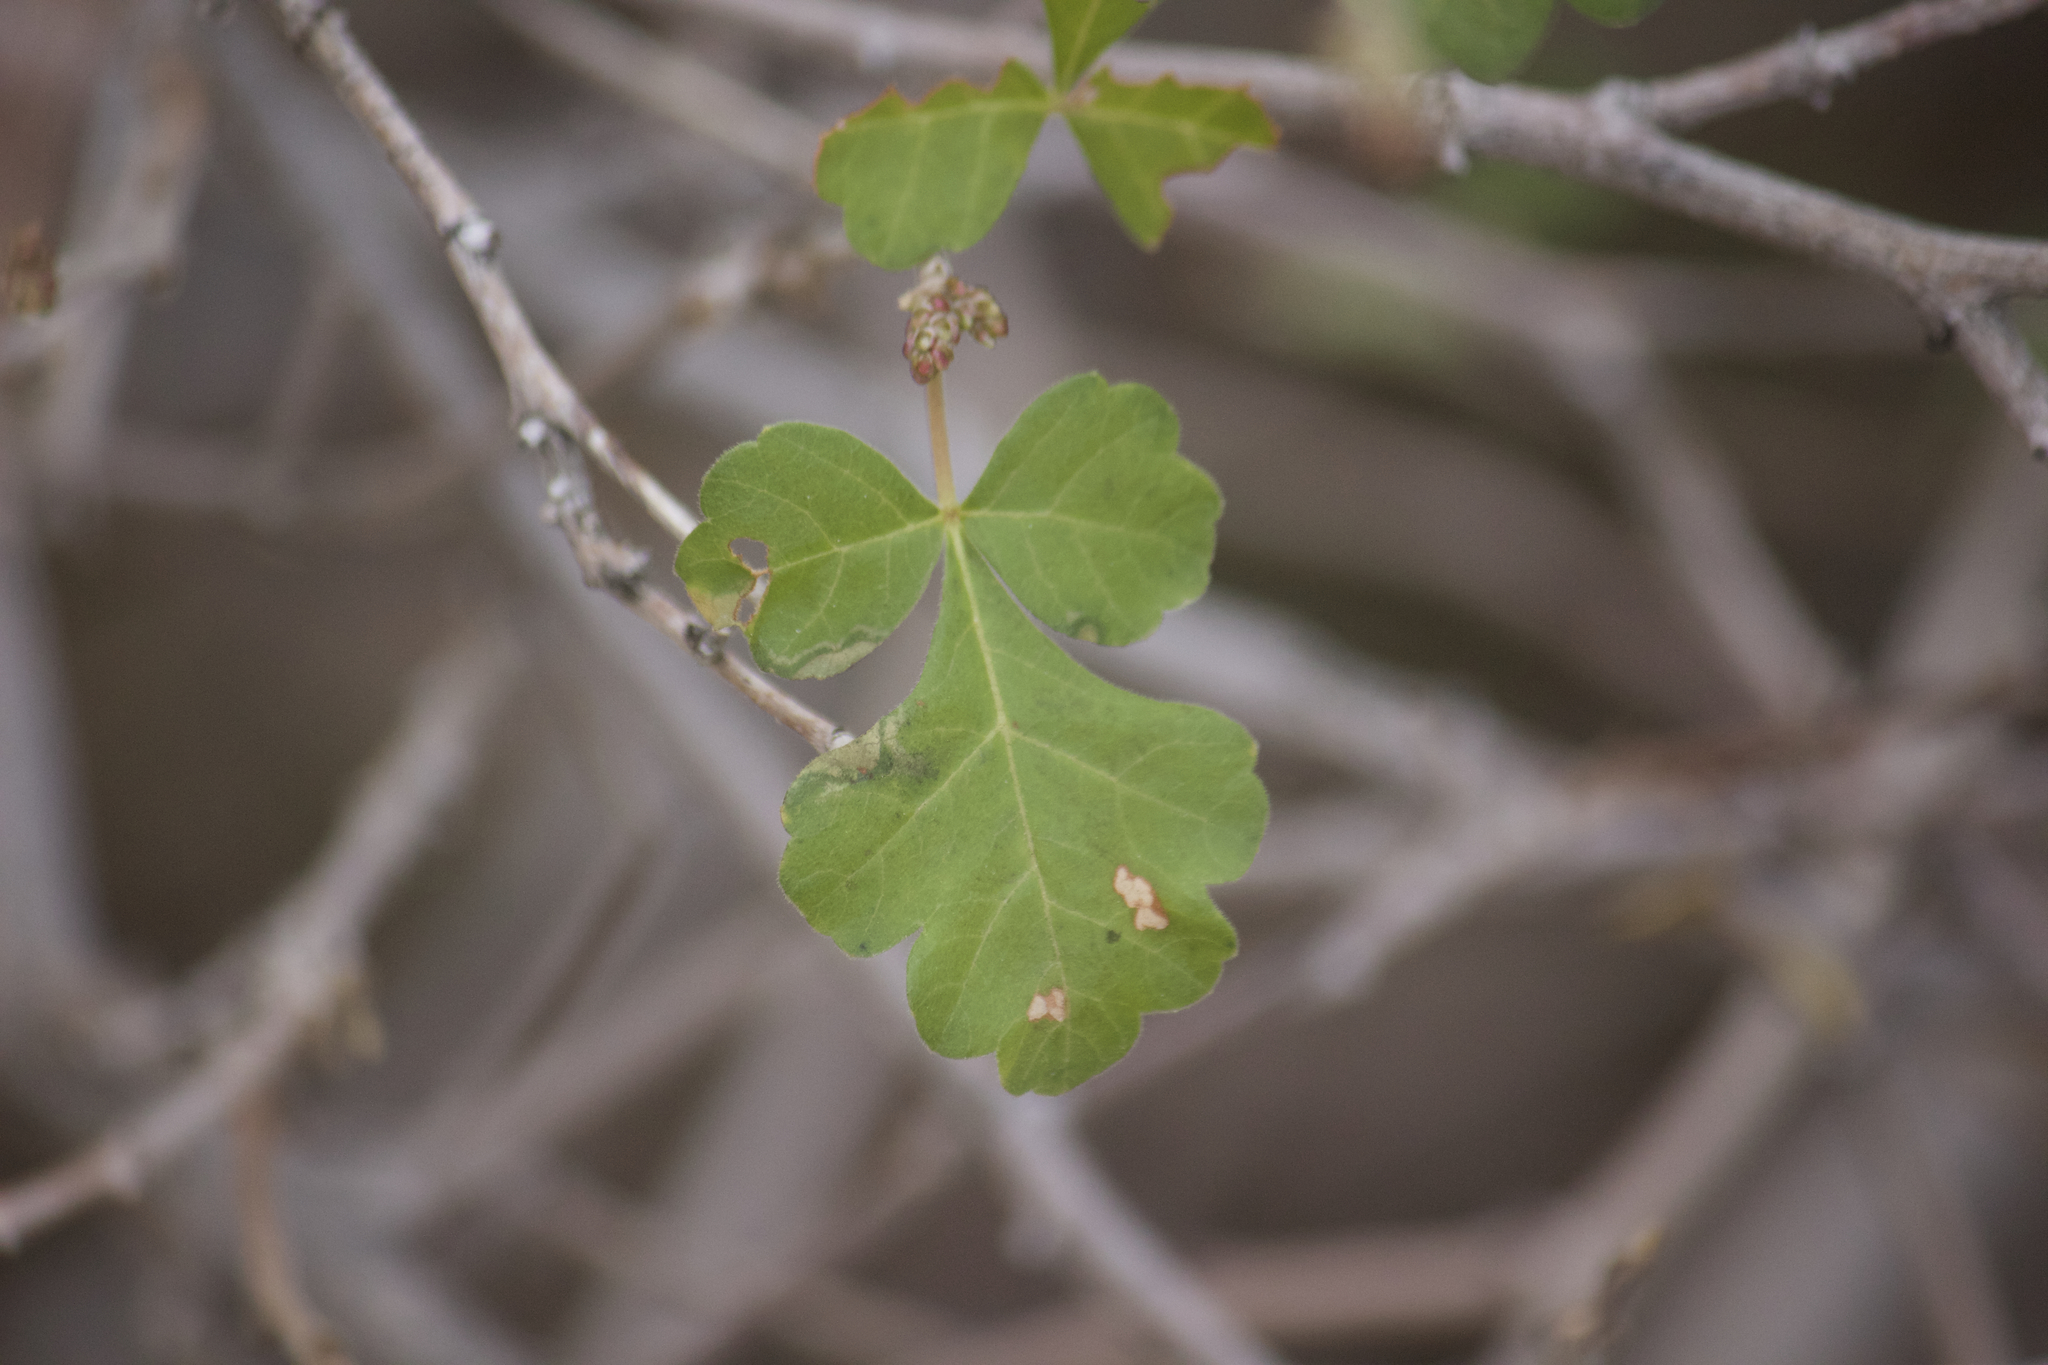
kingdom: Plantae
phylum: Tracheophyta
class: Magnoliopsida
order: Sapindales
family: Anacardiaceae
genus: Rhus
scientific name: Rhus aromatica
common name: Aromatic sumac
